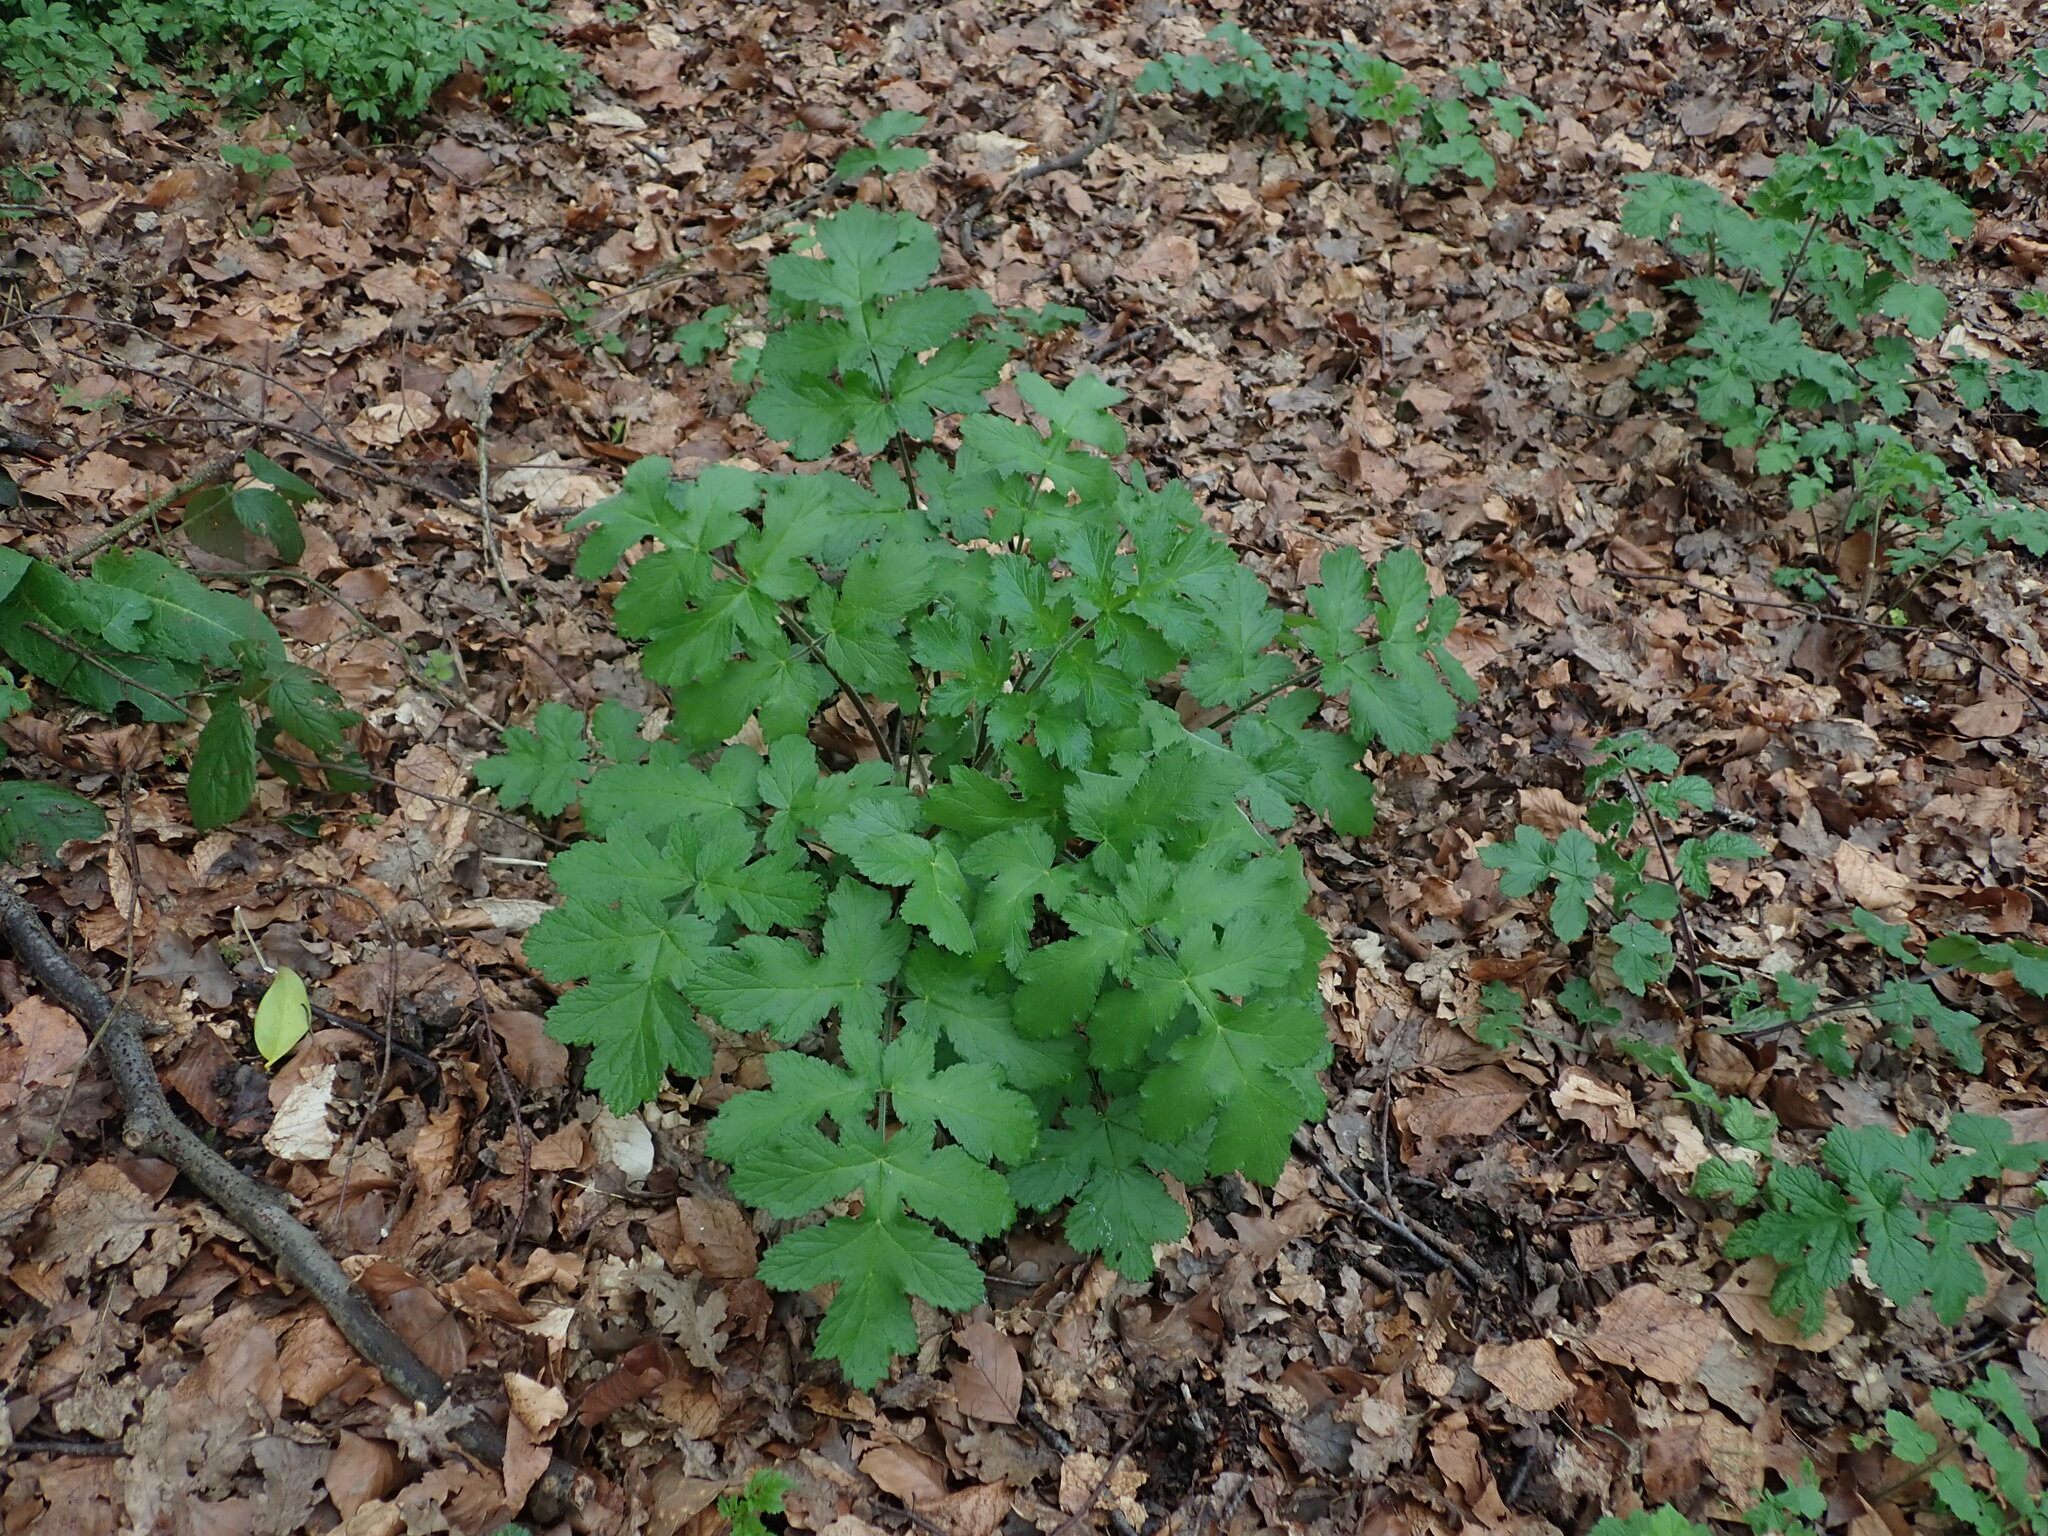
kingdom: Plantae
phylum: Tracheophyta
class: Magnoliopsida
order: Apiales
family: Apiaceae
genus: Heracleum
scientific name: Heracleum sphondylium
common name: Hogweed
